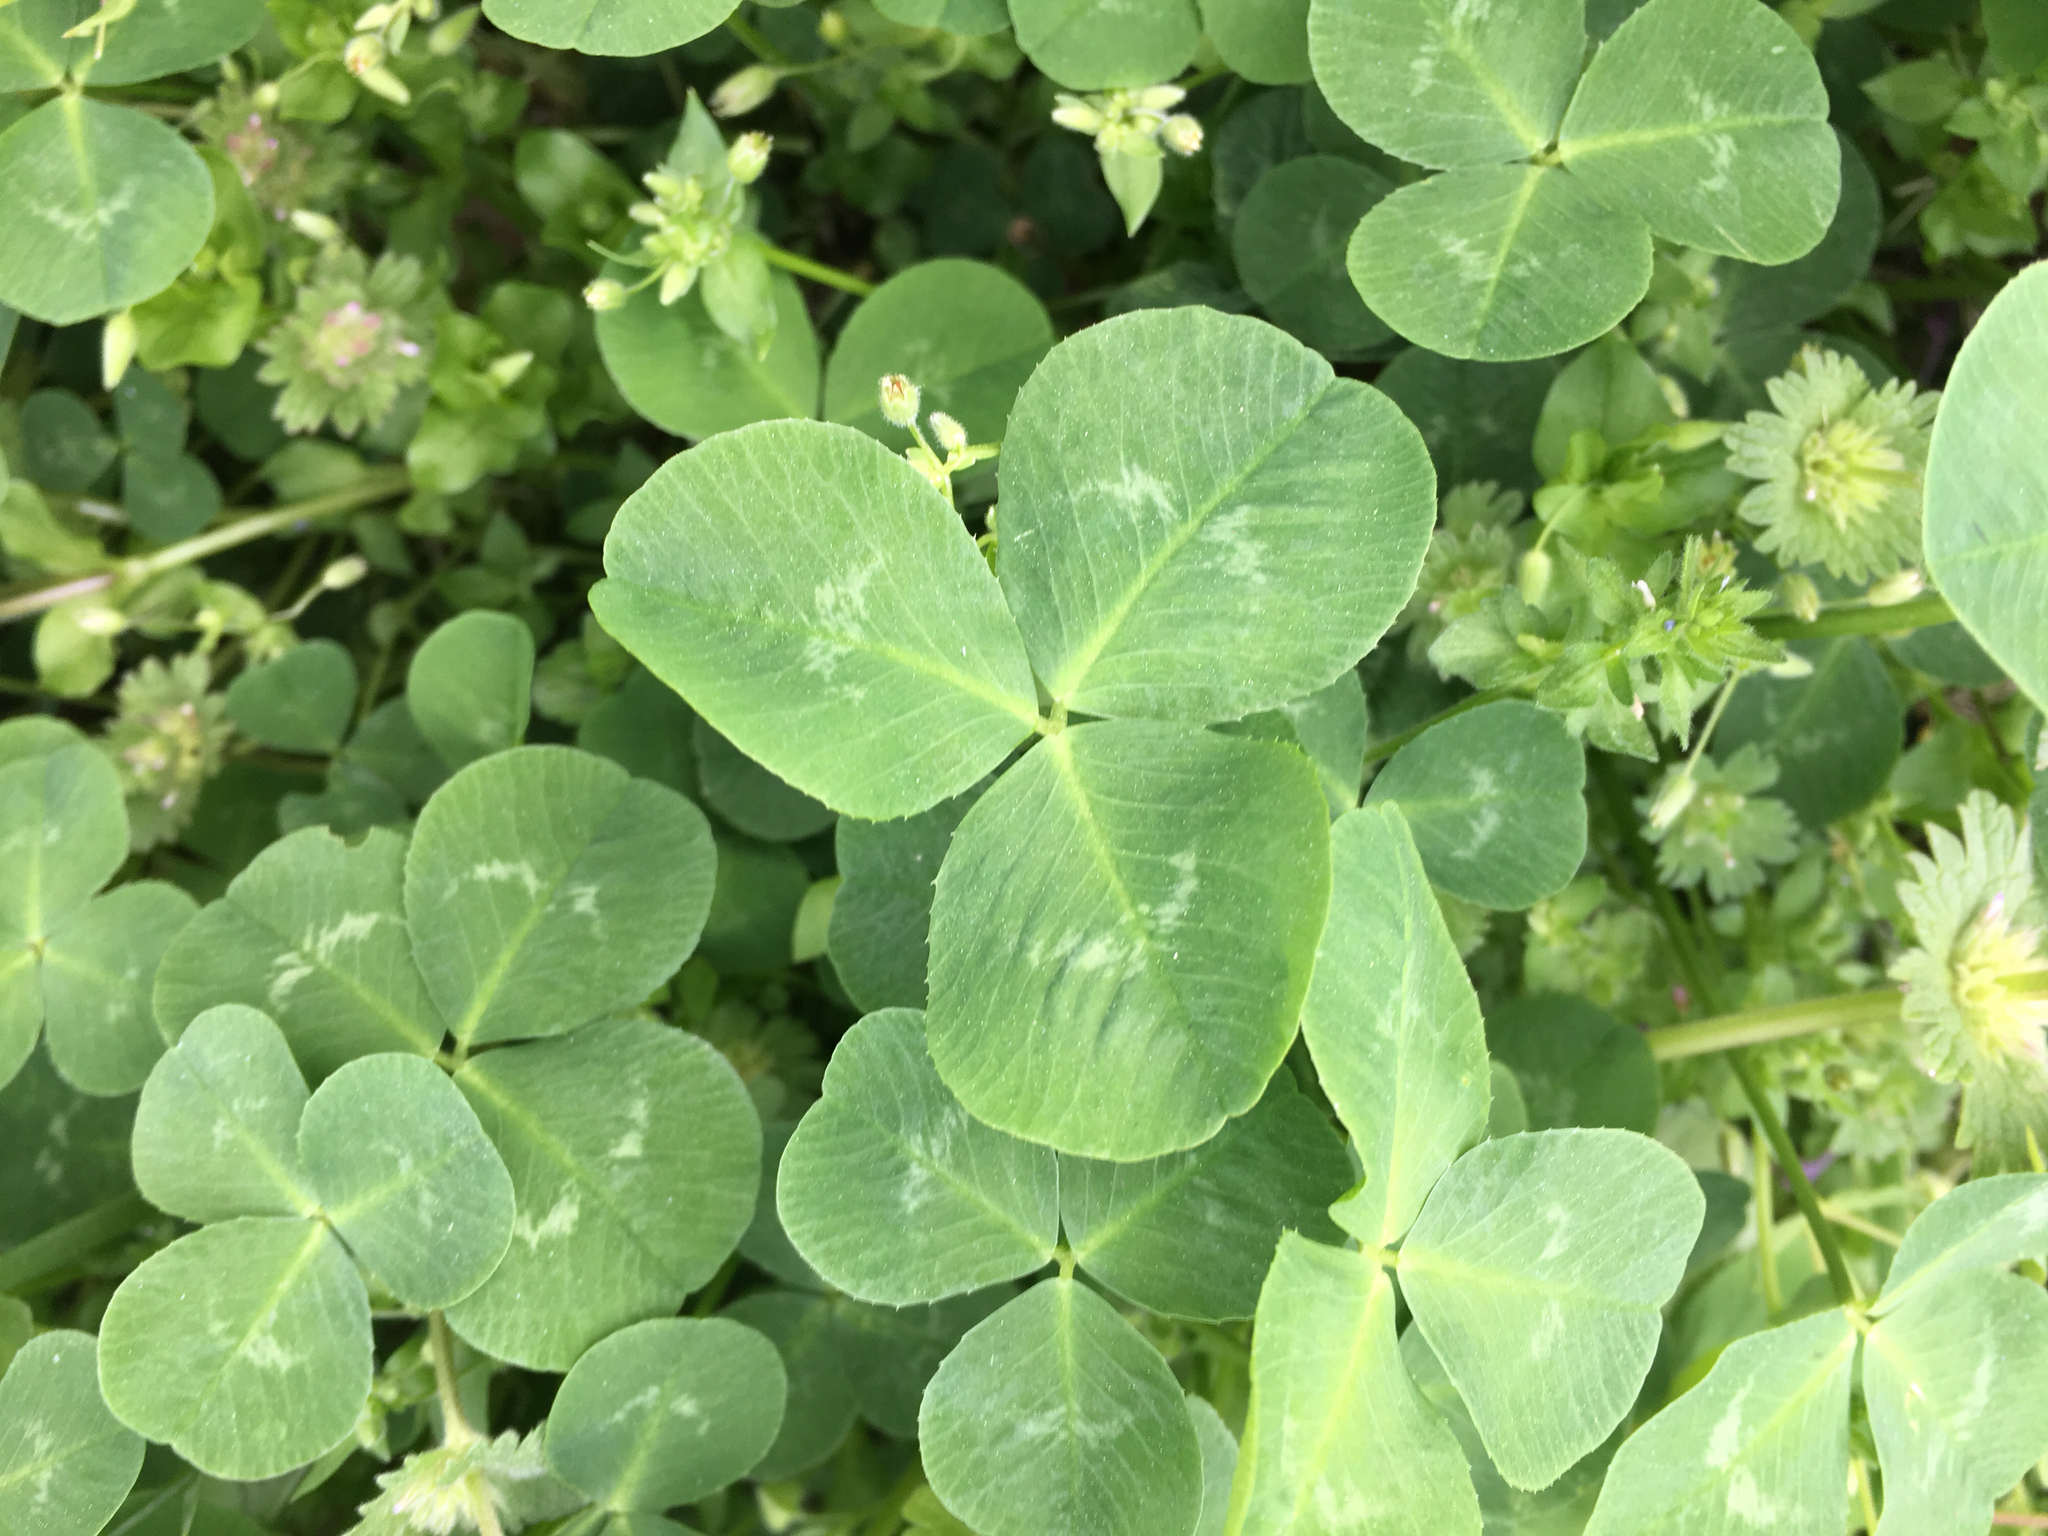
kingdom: Plantae
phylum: Tracheophyta
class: Magnoliopsida
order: Fabales
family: Fabaceae
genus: Trifolium
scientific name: Trifolium repens
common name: White clover
